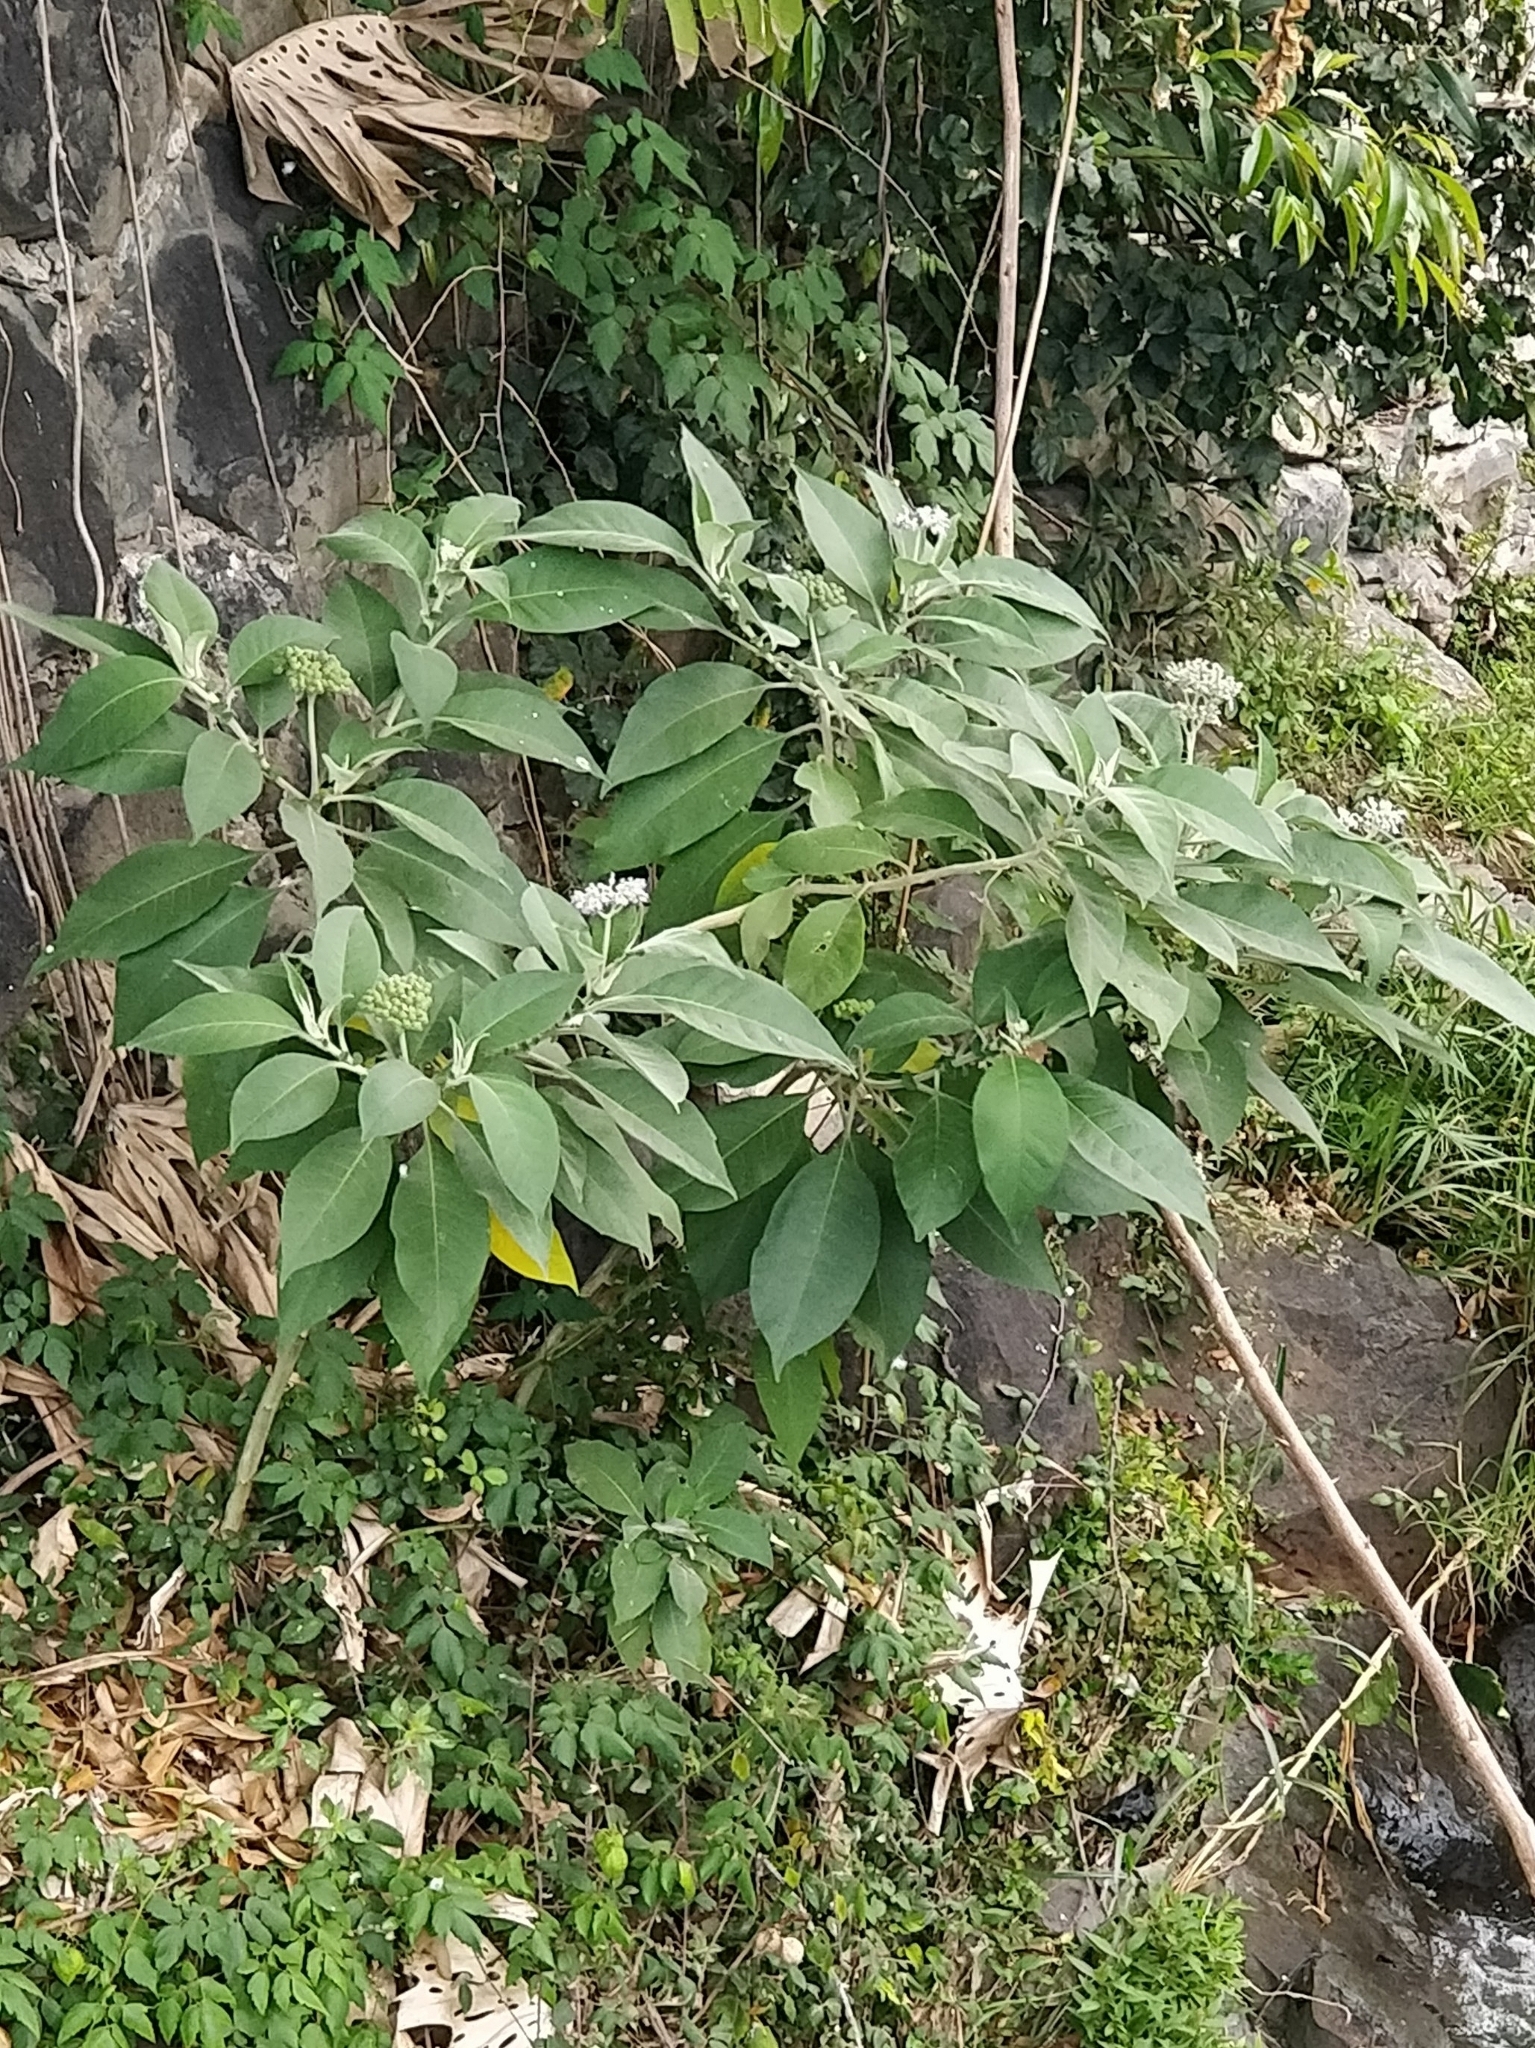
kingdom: Plantae
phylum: Tracheophyta
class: Magnoliopsida
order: Solanales
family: Solanaceae
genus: Solanum
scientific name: Solanum mauritianum
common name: Earleaf nightshade
